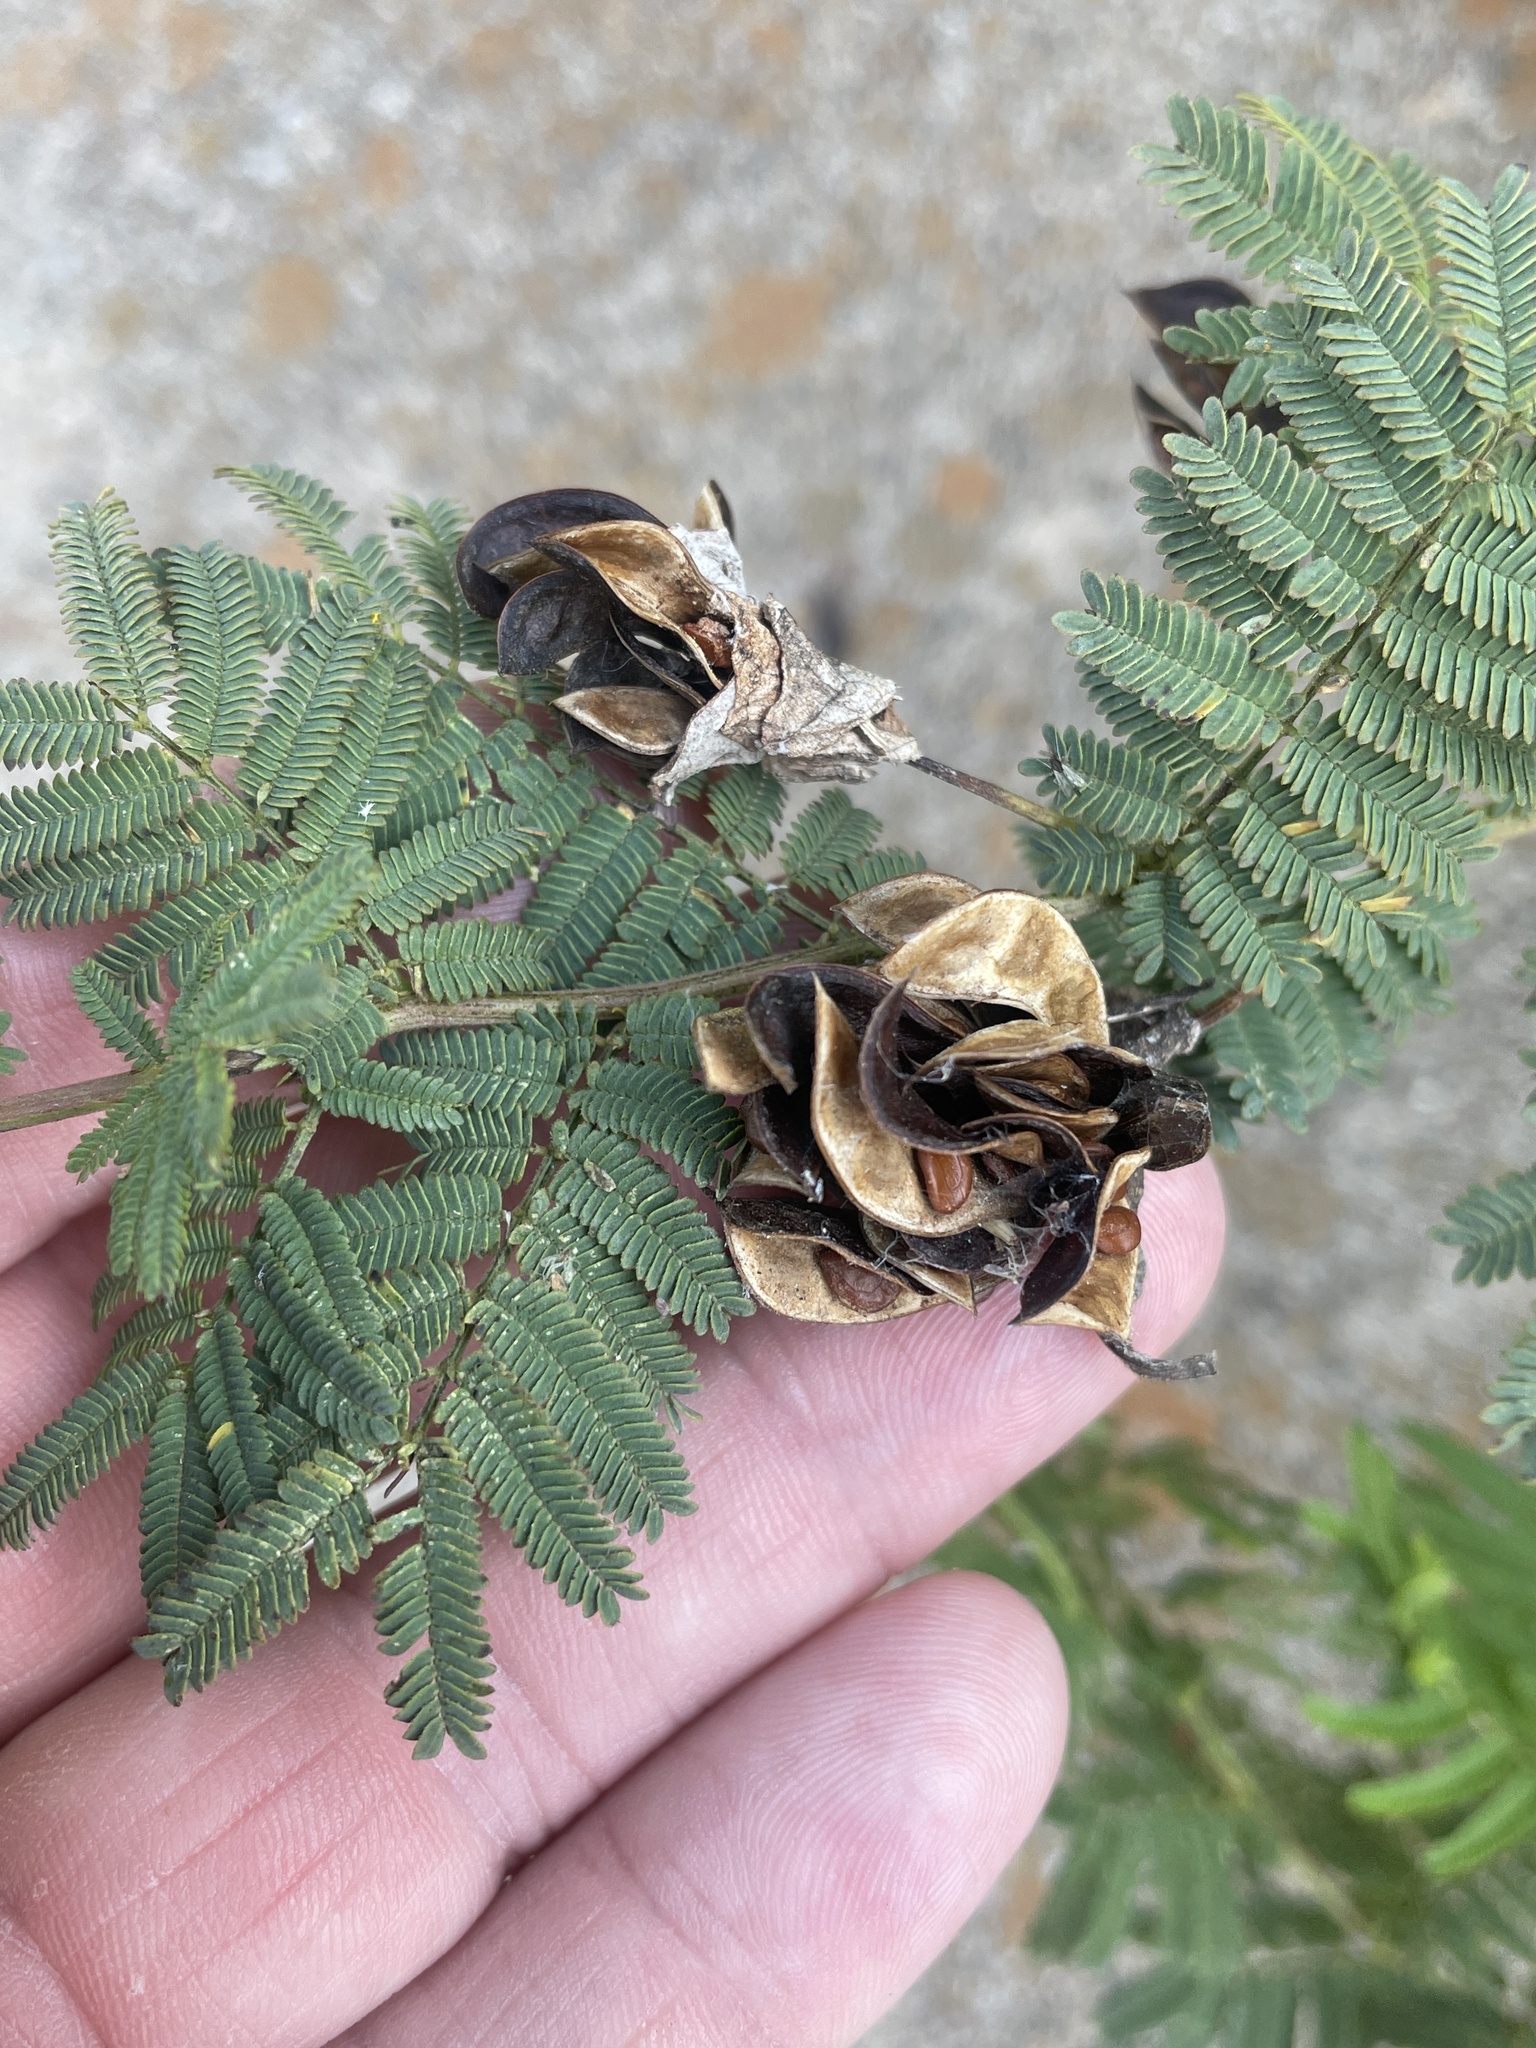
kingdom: Plantae
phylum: Tracheophyta
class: Magnoliopsida
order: Fabales
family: Fabaceae
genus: Desmanthus
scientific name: Desmanthus illinoensis
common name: Illinois bundle-flower
